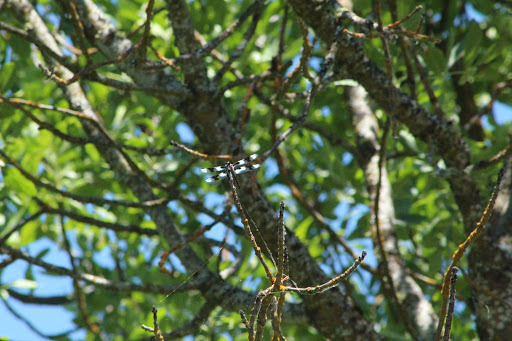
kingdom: Animalia
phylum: Arthropoda
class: Insecta
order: Odonata
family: Libellulidae
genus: Libellula
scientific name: Libellula forensis
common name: Eight-spotted skimmer
